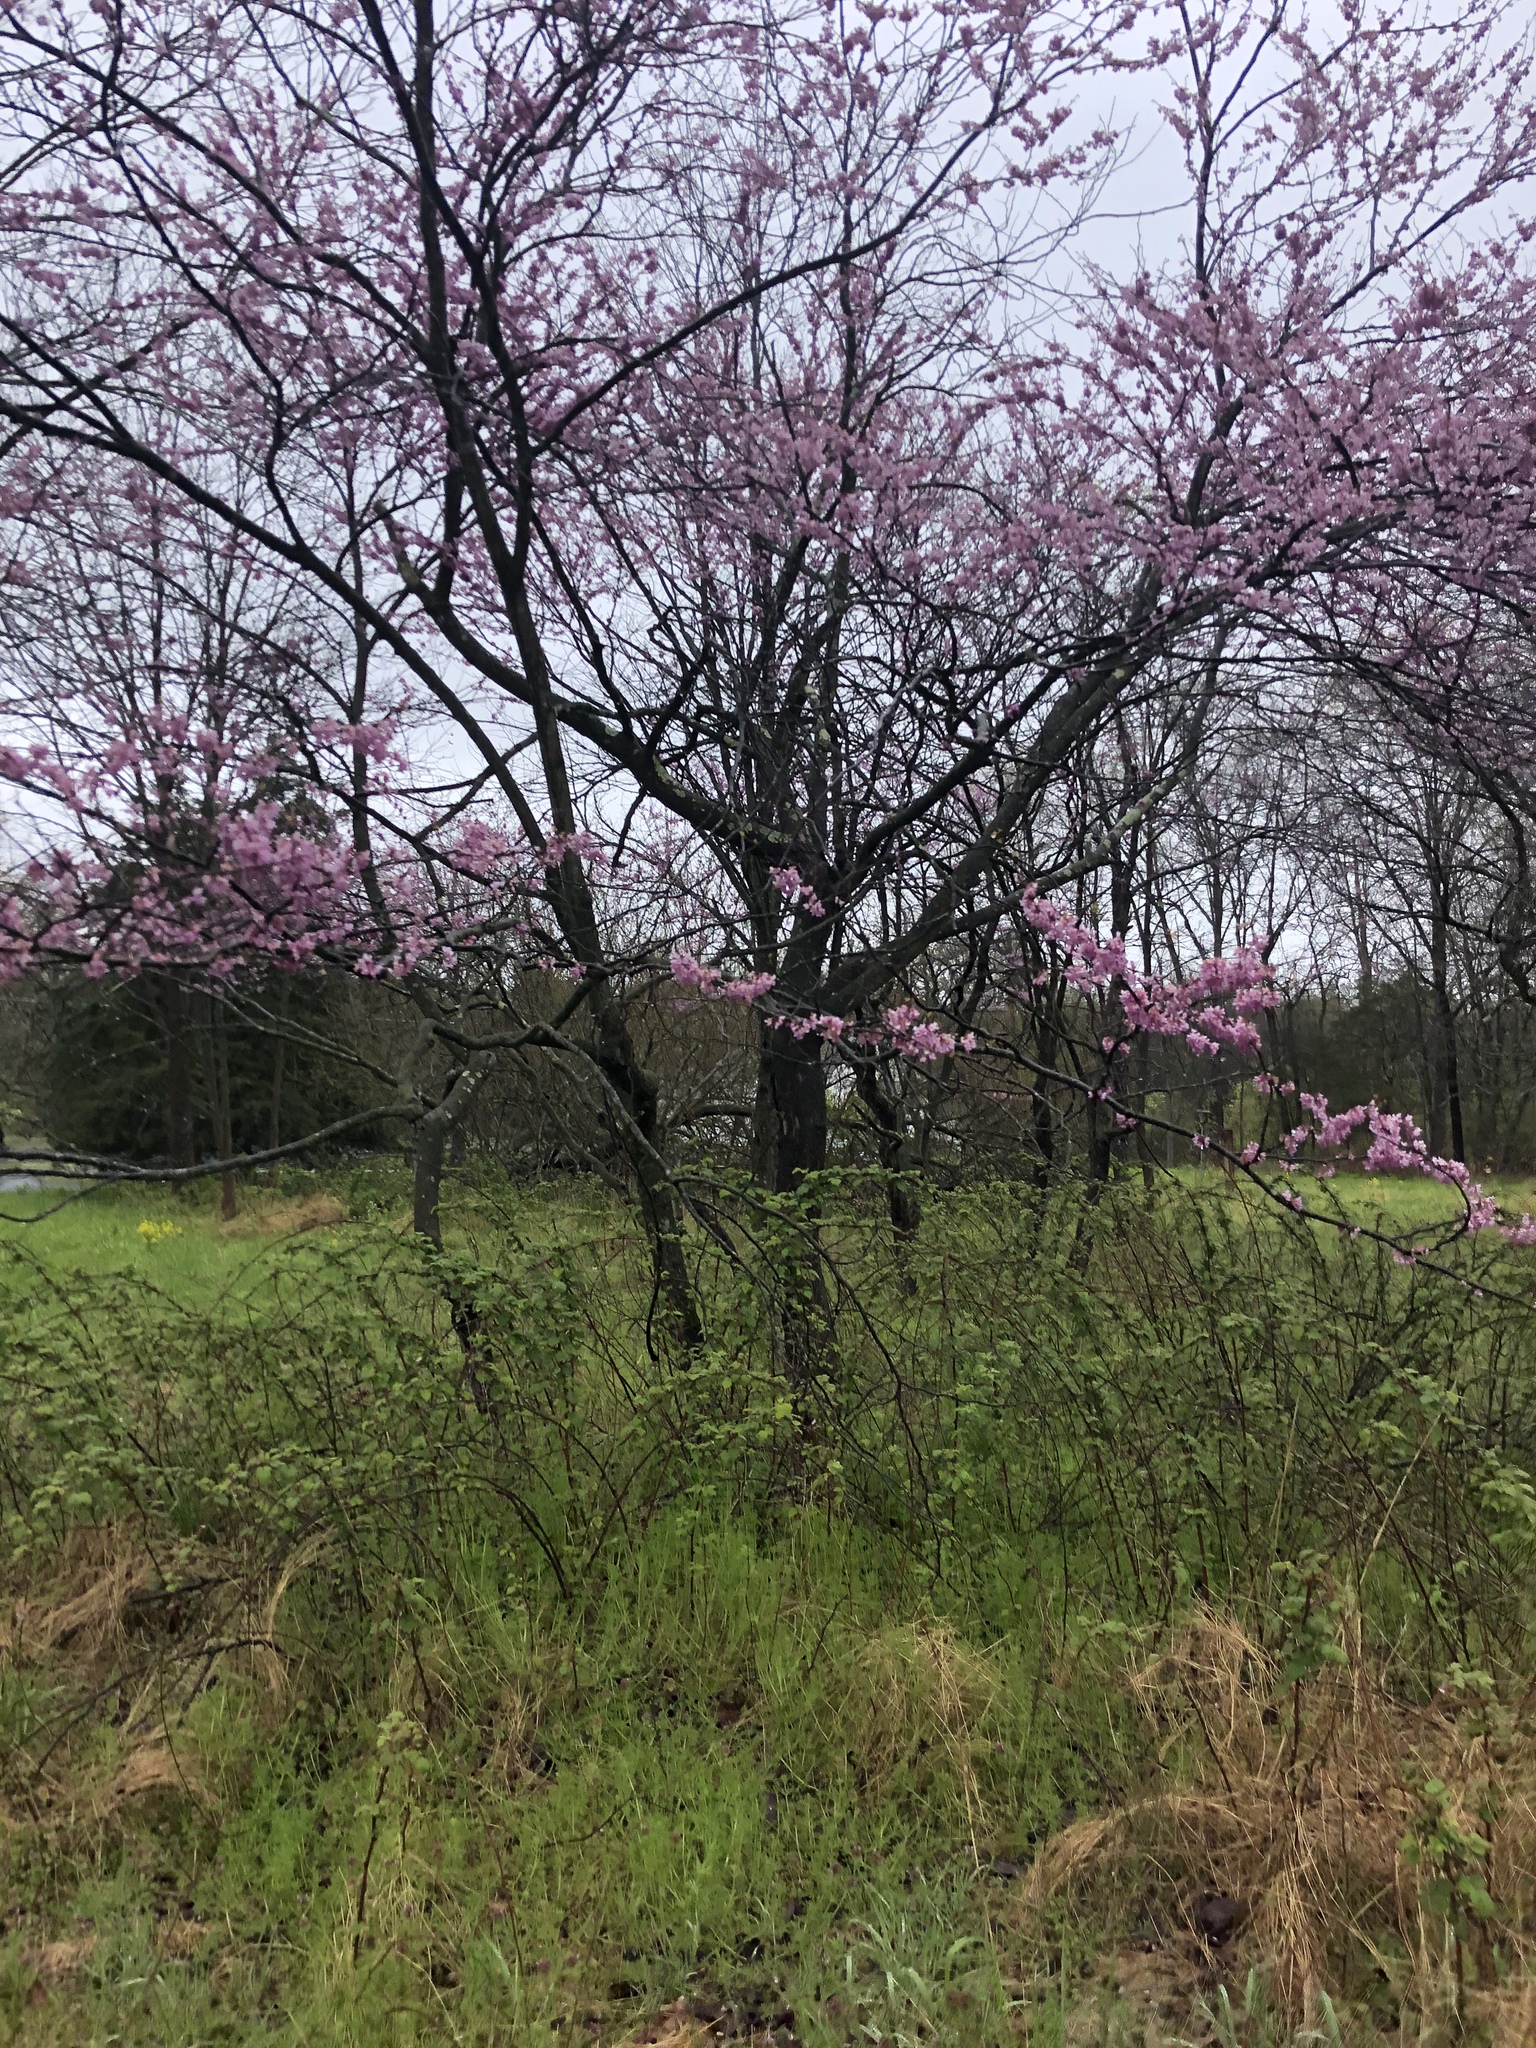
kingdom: Plantae
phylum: Tracheophyta
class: Magnoliopsida
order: Fabales
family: Fabaceae
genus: Cercis
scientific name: Cercis canadensis
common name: Eastern redbud
